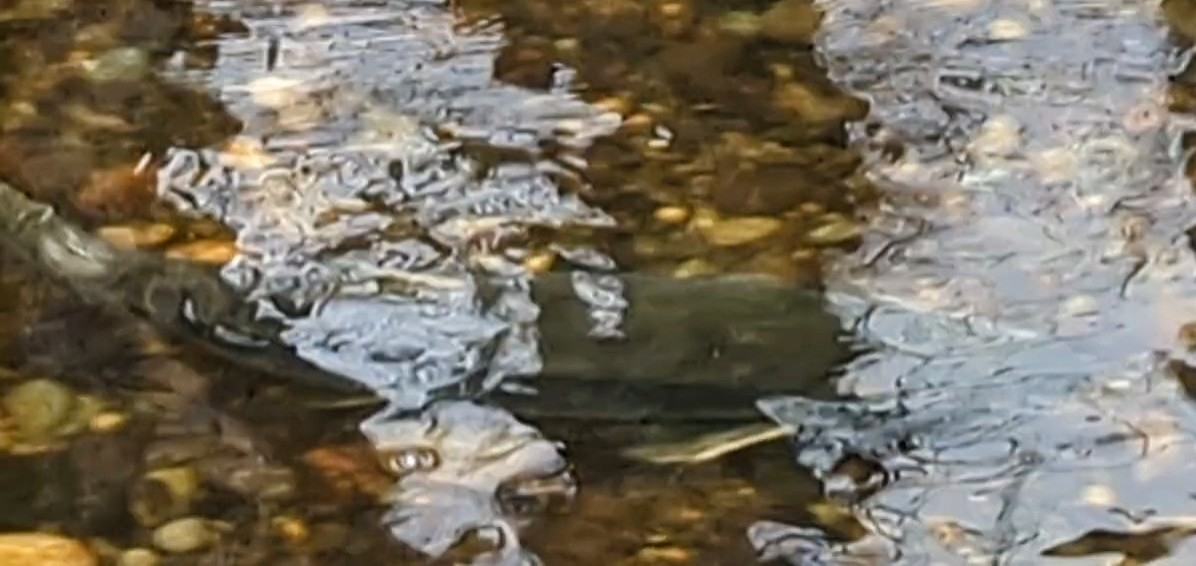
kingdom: Animalia
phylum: Chordata
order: Salmoniformes
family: Salmonidae
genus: Oncorhynchus
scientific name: Oncorhynchus keta
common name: Chum salmon
